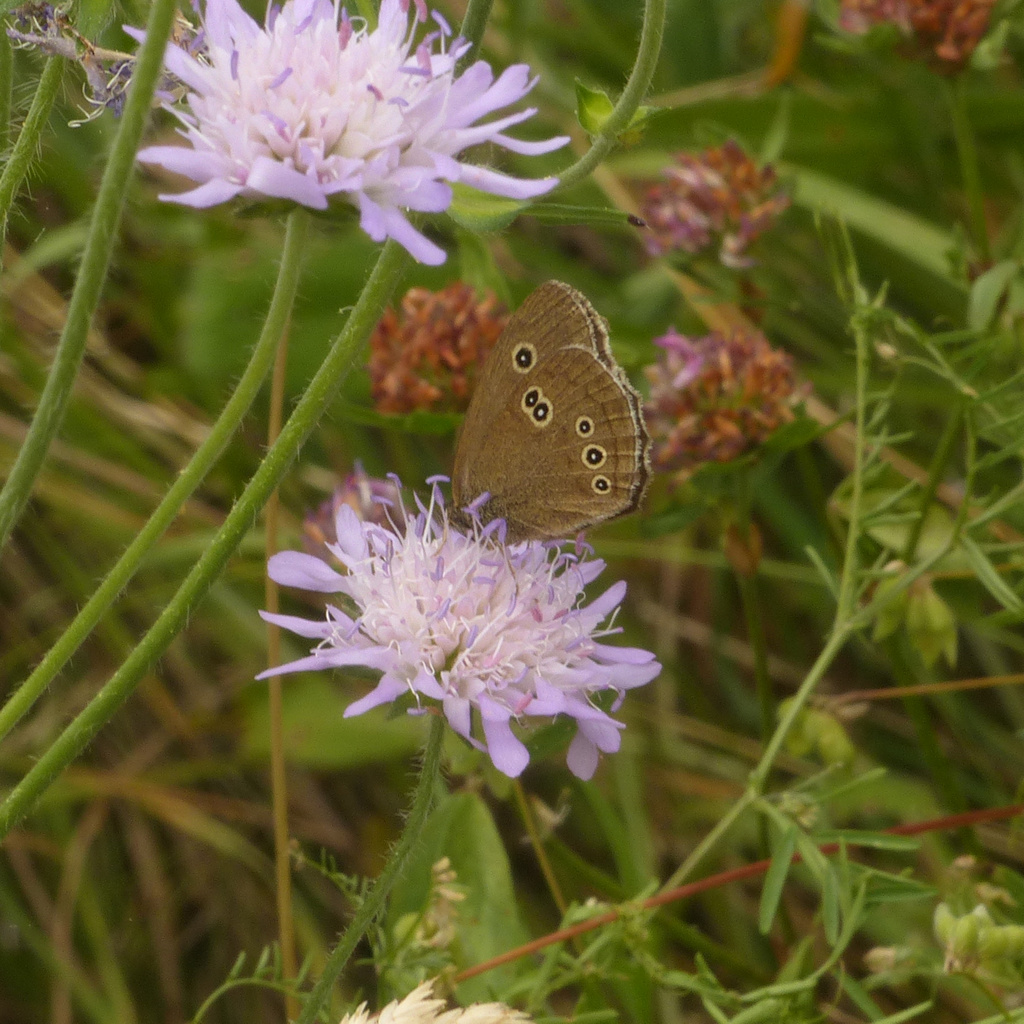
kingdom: Animalia
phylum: Arthropoda
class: Insecta
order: Lepidoptera
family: Nymphalidae
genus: Aphantopus
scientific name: Aphantopus hyperantus
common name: Ringlet
